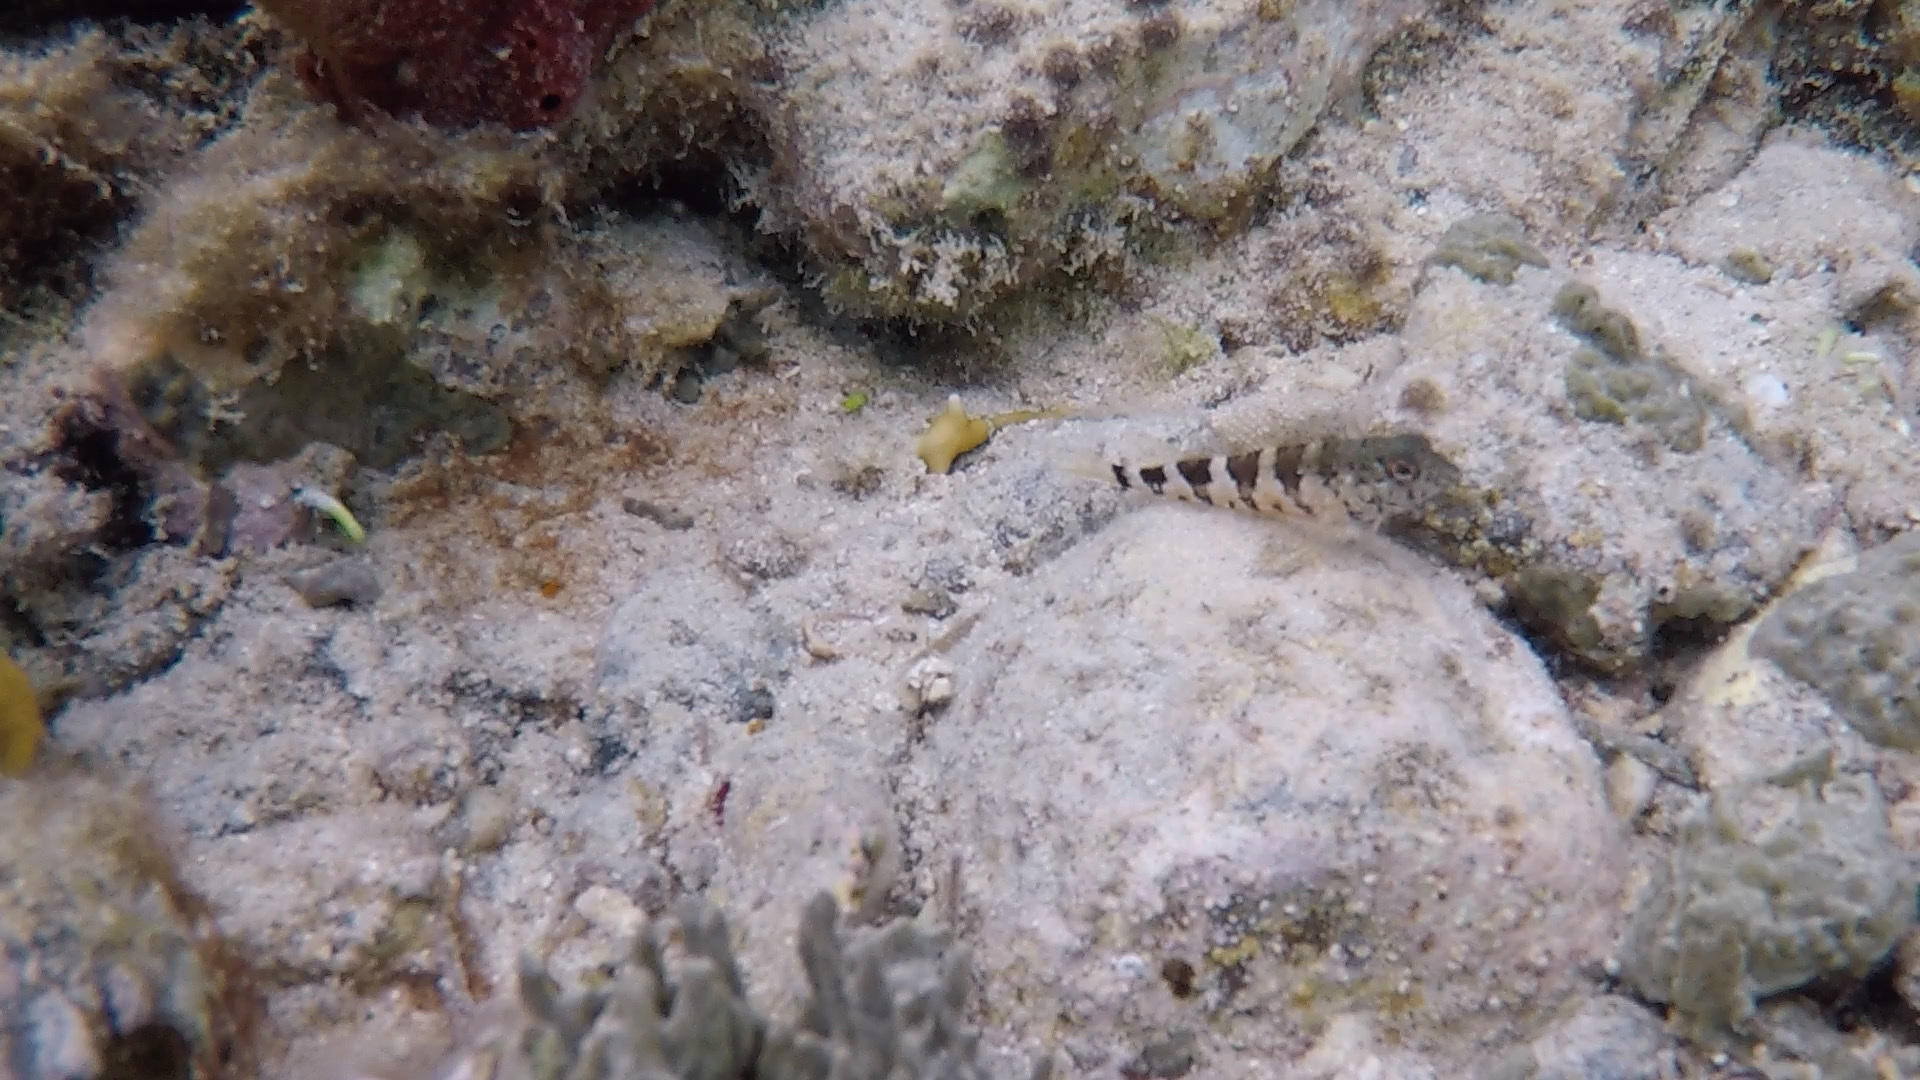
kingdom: Animalia
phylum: Chordata
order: Perciformes
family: Labrisomidae
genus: Malacoctenus
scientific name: Malacoctenus triangulatus
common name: Saddled blenny
